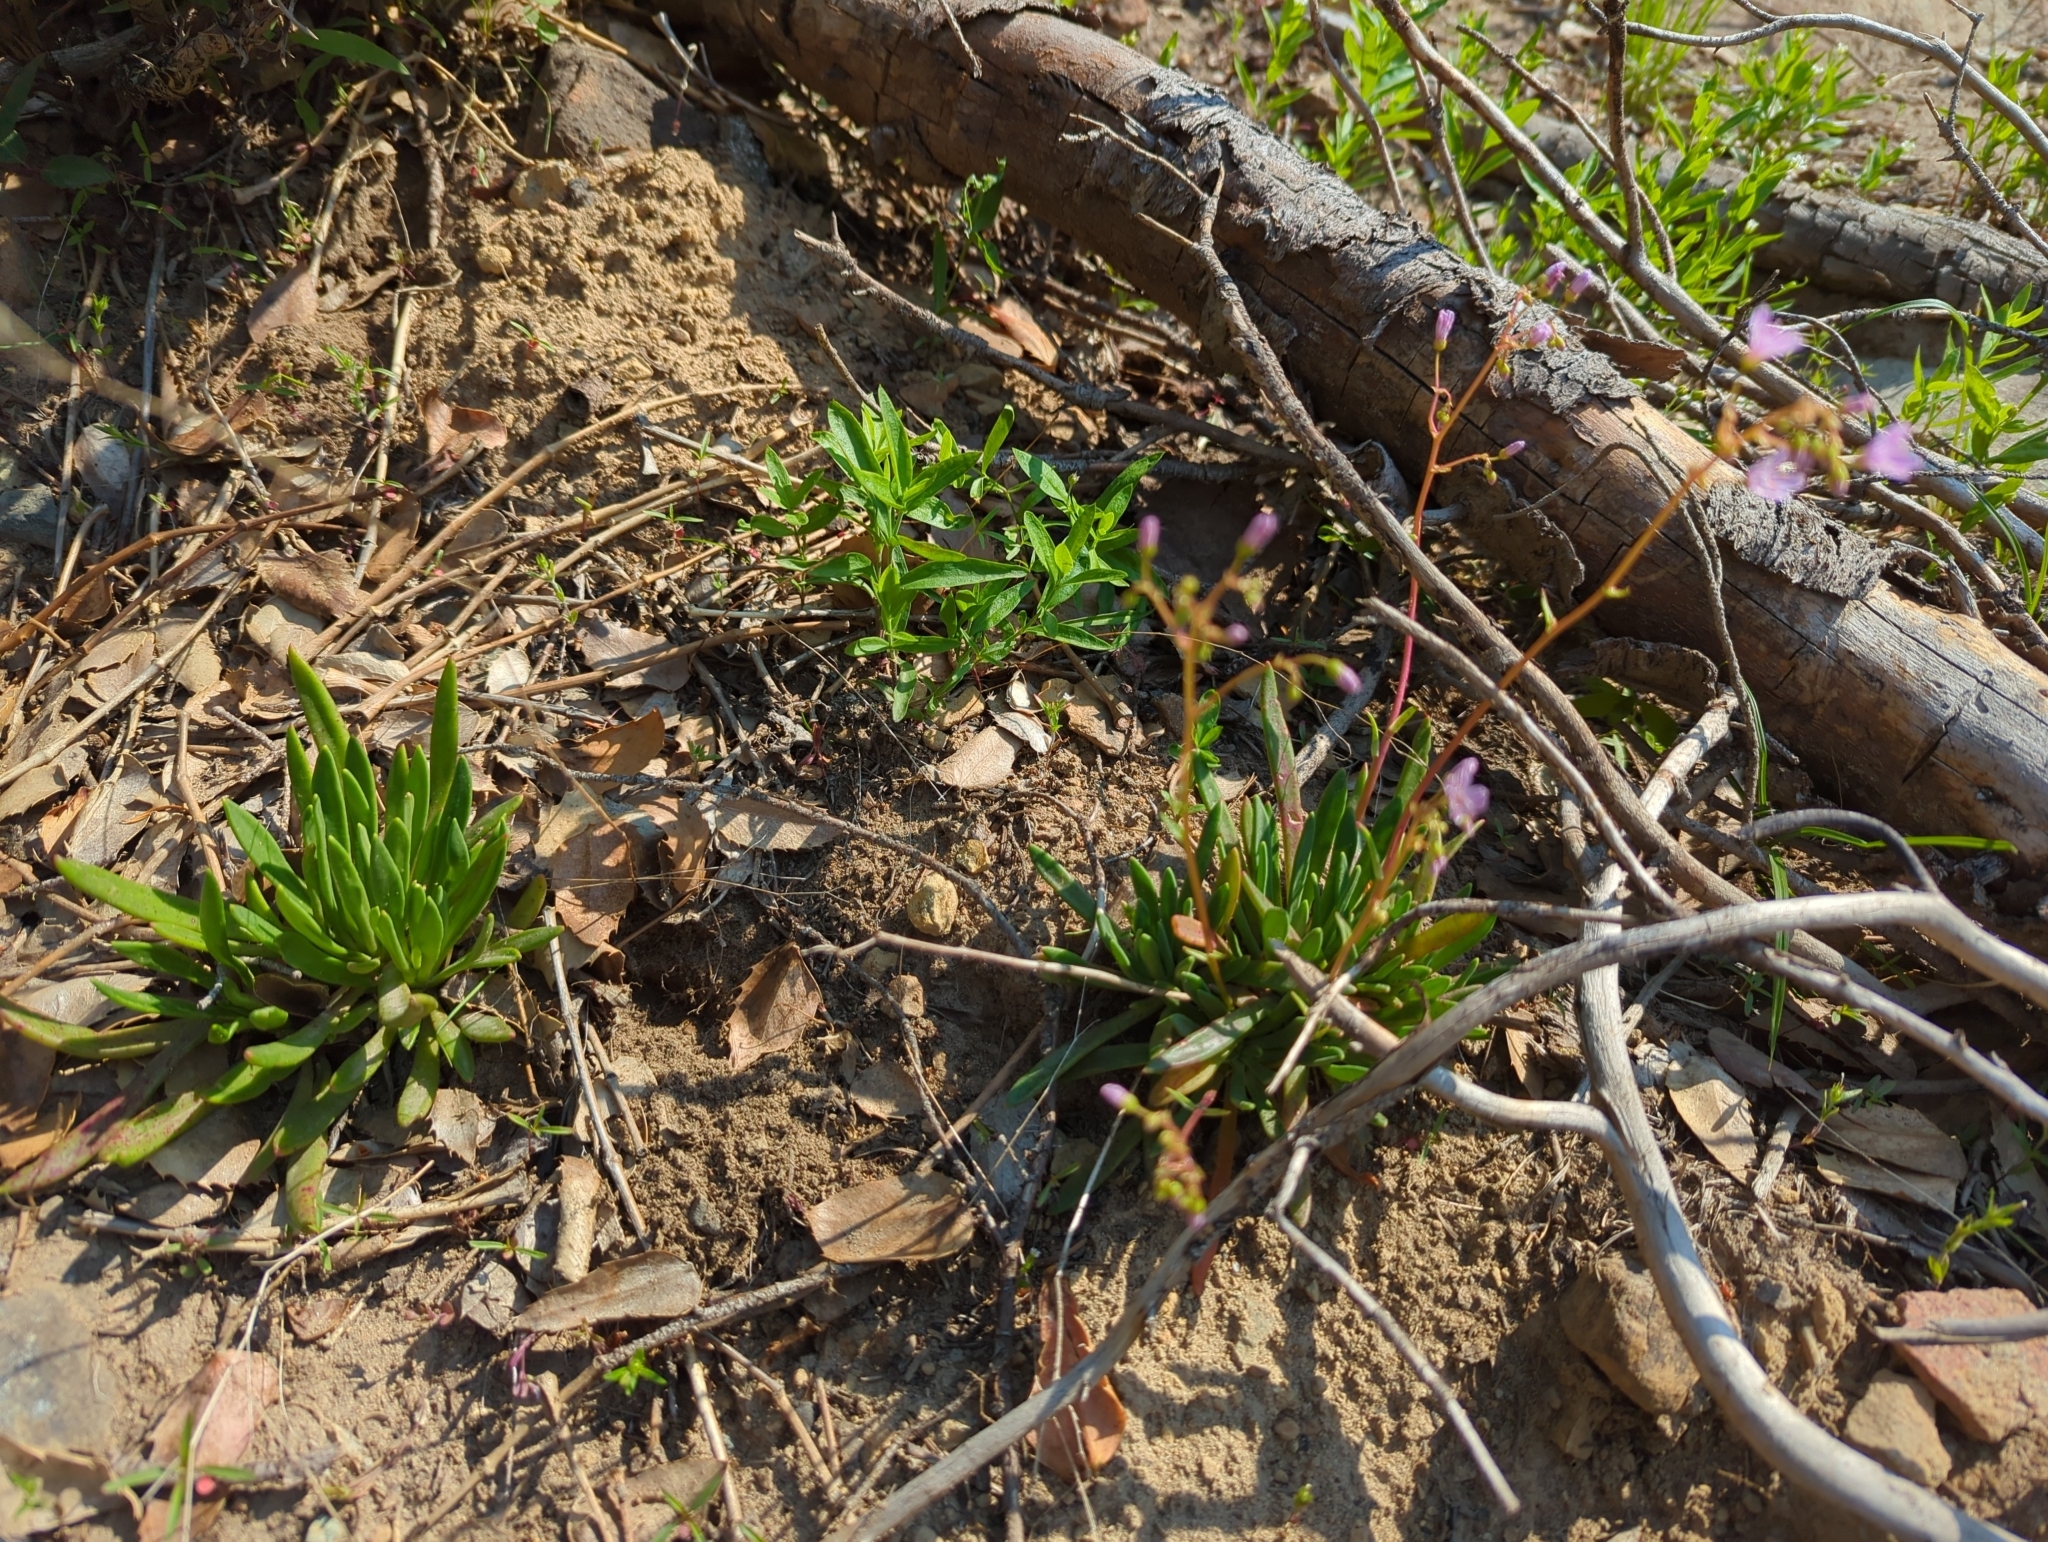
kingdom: Plantae
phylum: Tracheophyta
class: Magnoliopsida
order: Caryophyllales
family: Montiaceae
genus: Lewisia
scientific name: Lewisia columbiana
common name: Columbia lewisia
